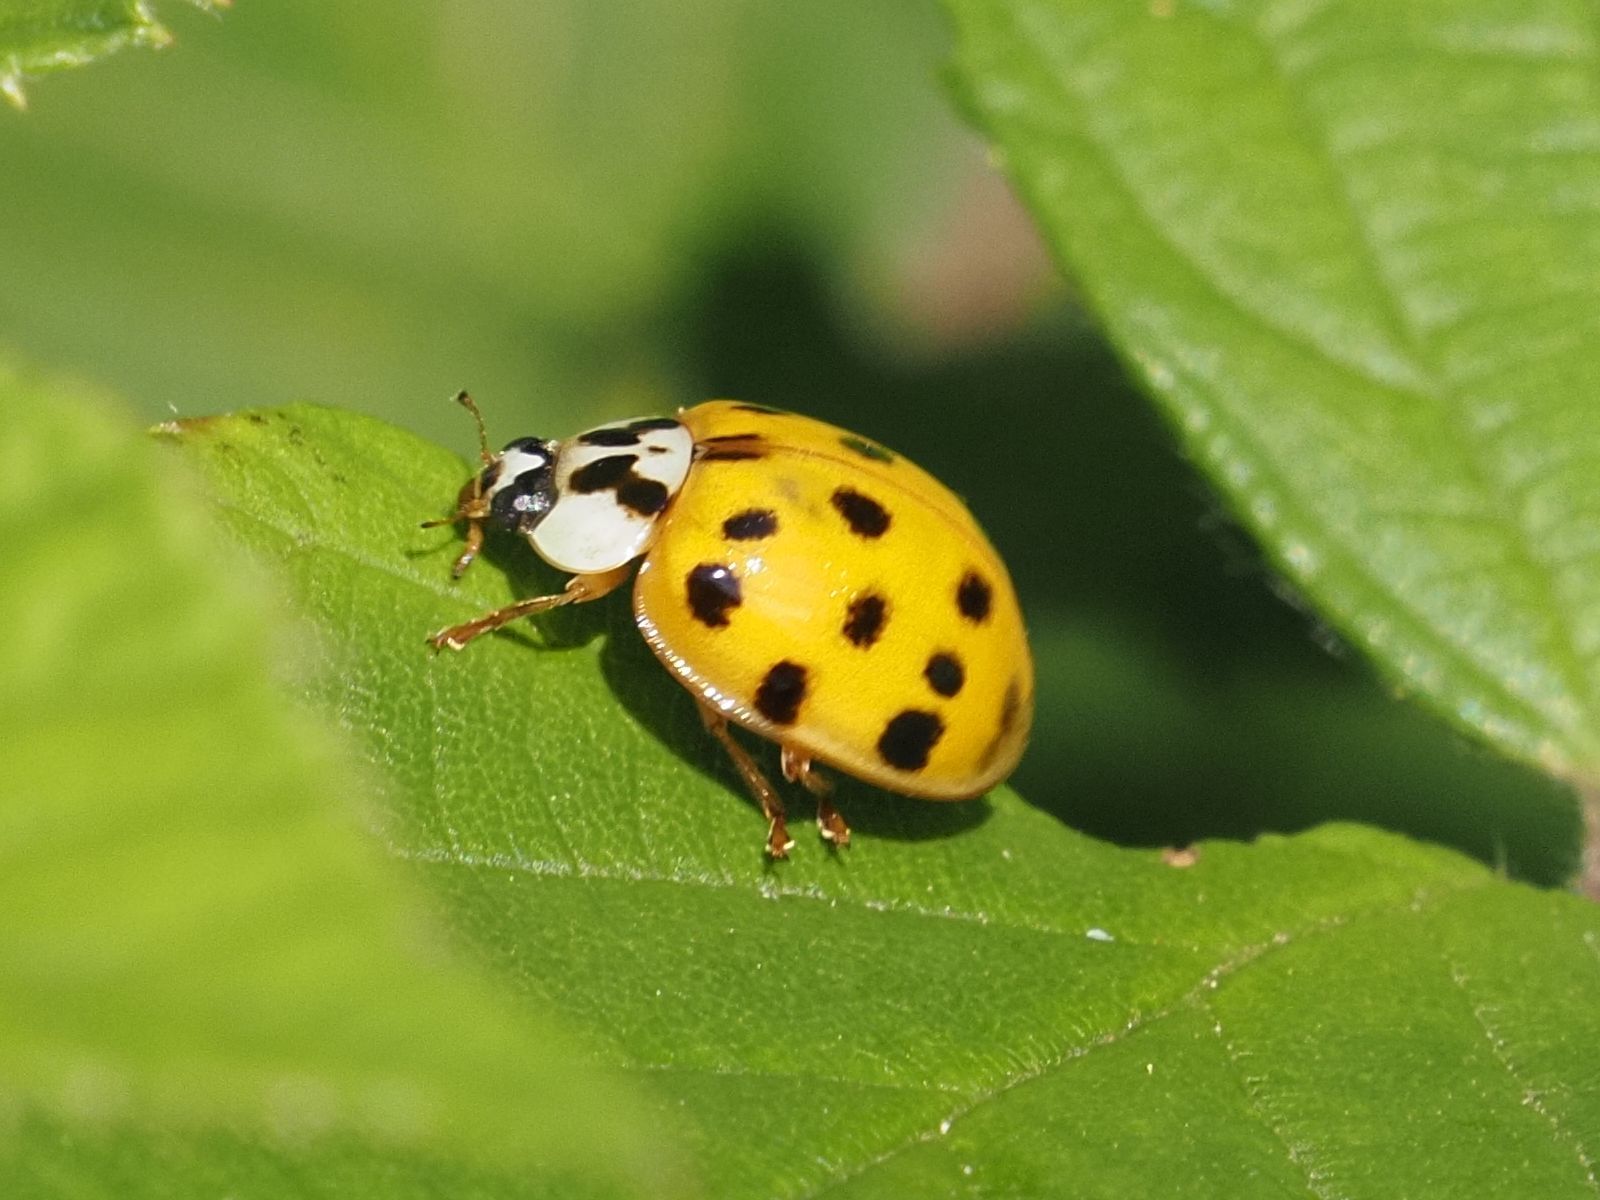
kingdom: Animalia
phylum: Arthropoda
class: Insecta
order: Coleoptera
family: Coccinellidae
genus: Harmonia
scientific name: Harmonia axyridis
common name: Harlequin ladybird
